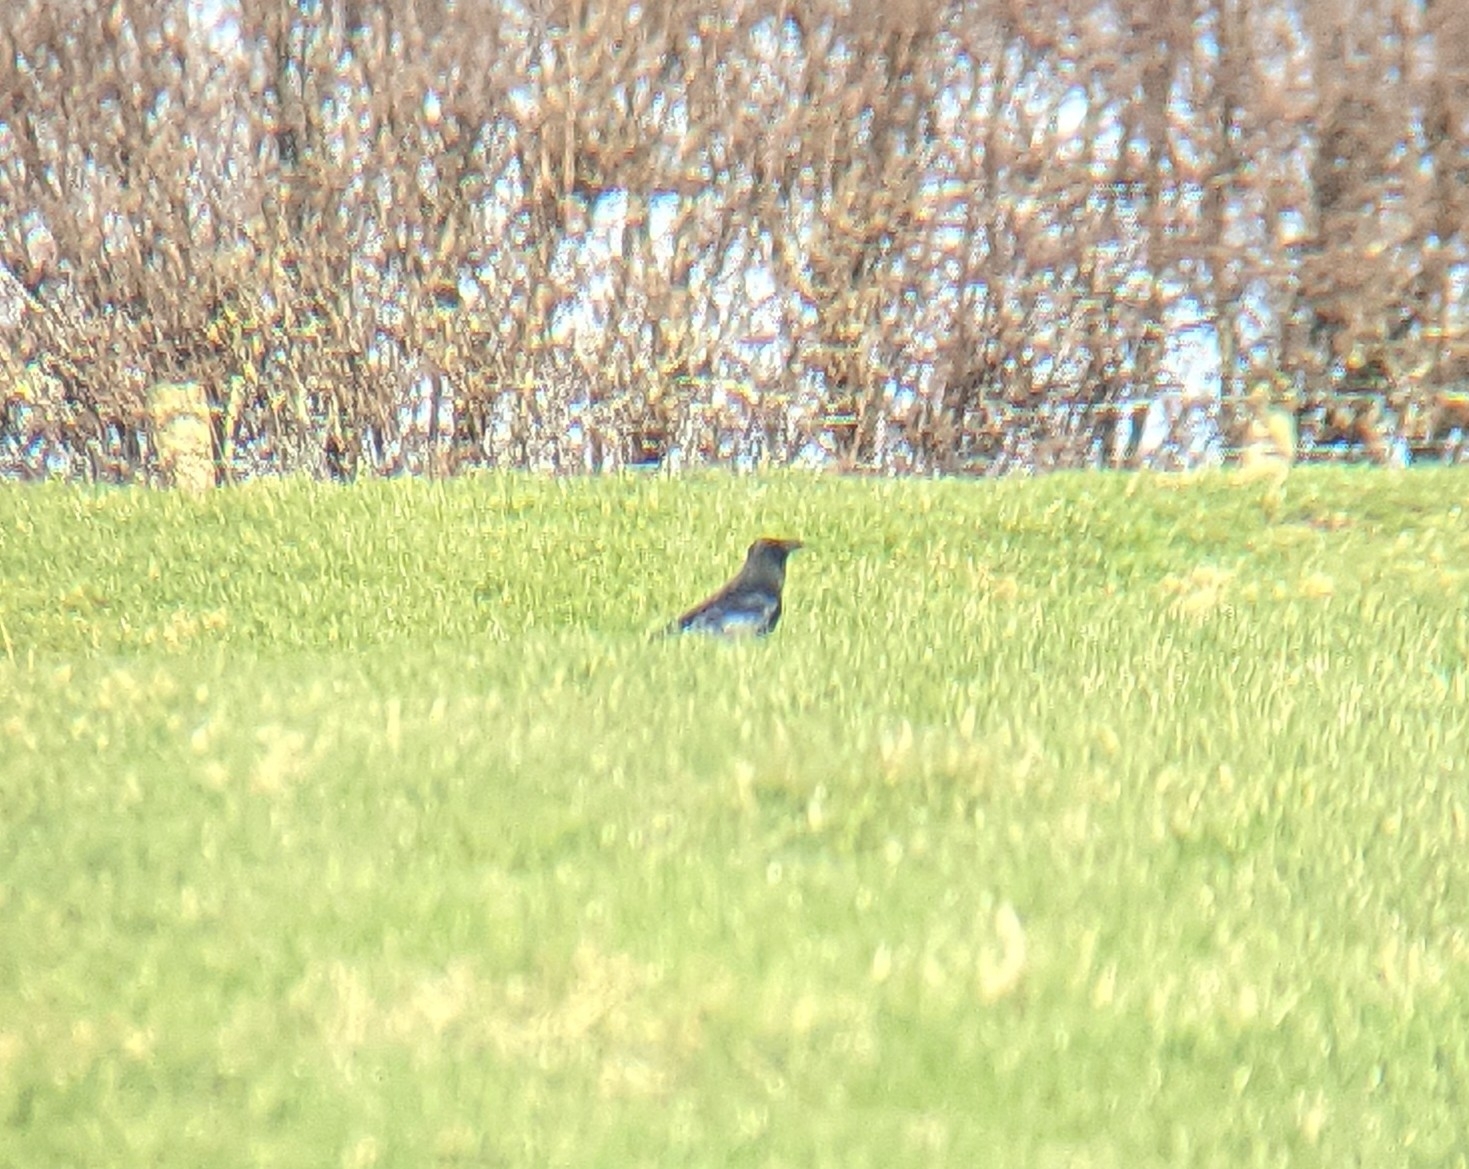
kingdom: Animalia
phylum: Chordata
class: Aves
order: Passeriformes
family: Corvidae
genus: Corvus
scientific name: Corvus corone
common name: Carrion crow
